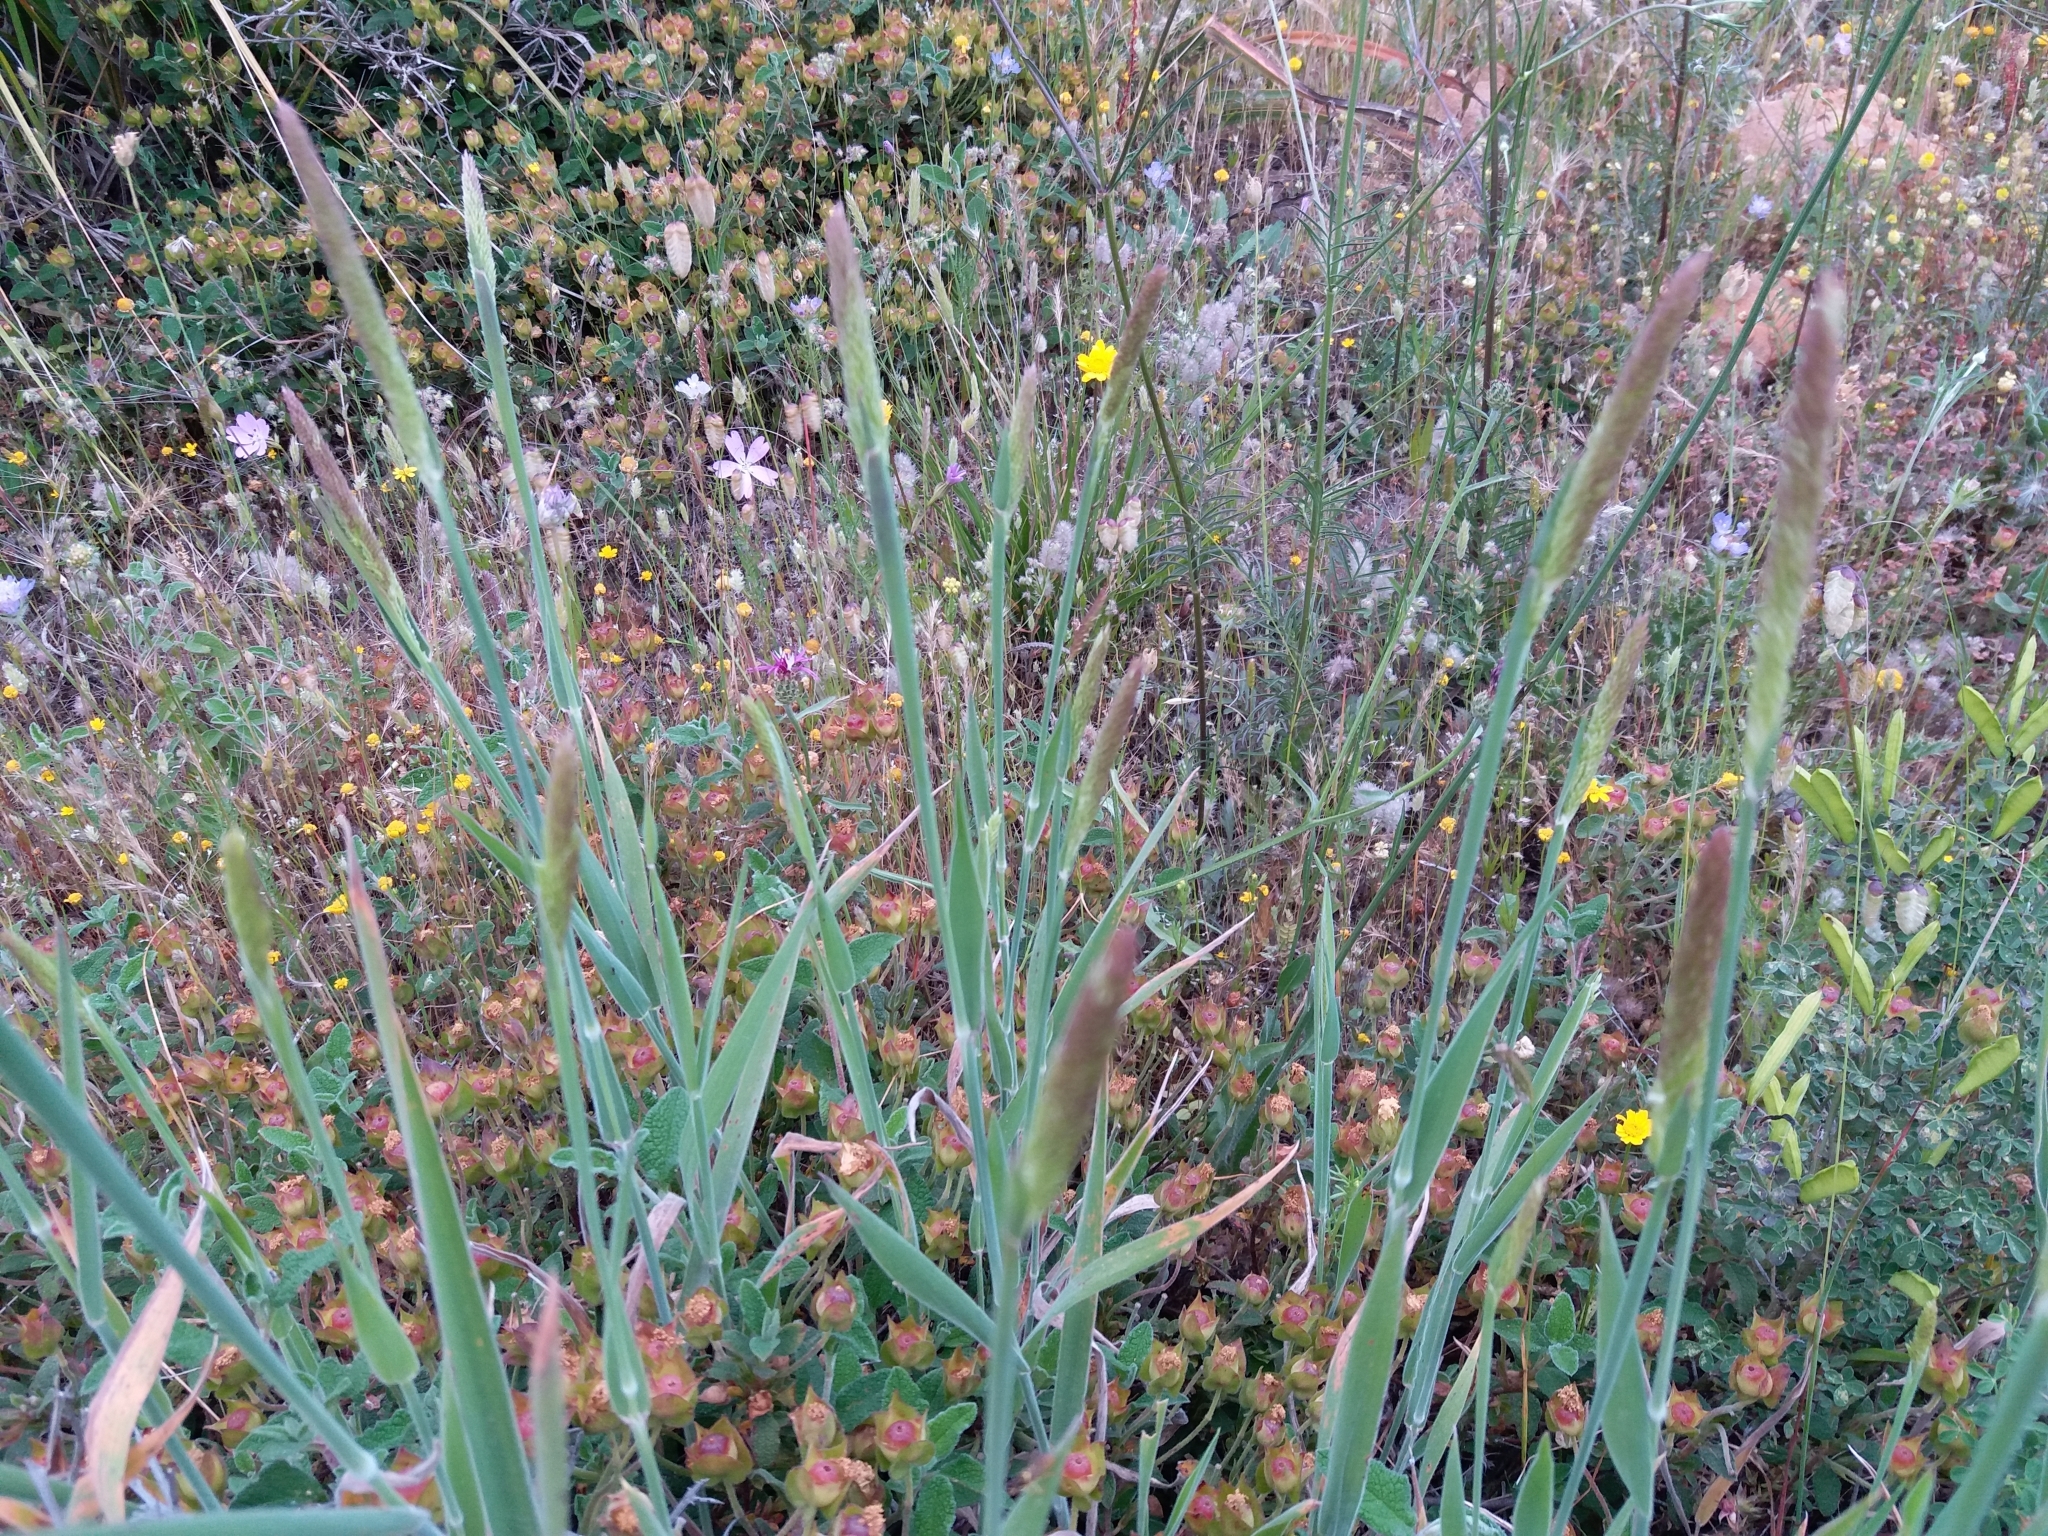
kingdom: Plantae
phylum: Tracheophyta
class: Liliopsida
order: Poales
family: Poaceae
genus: Holcus
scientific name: Holcus lanatus
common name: Yorkshire-fog
